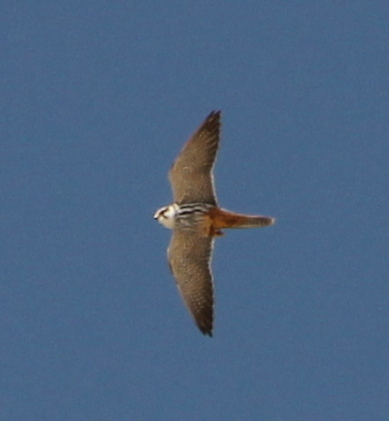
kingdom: Animalia
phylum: Chordata
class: Aves
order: Falconiformes
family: Falconidae
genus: Falco
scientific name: Falco subbuteo
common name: Eurasian hobby
